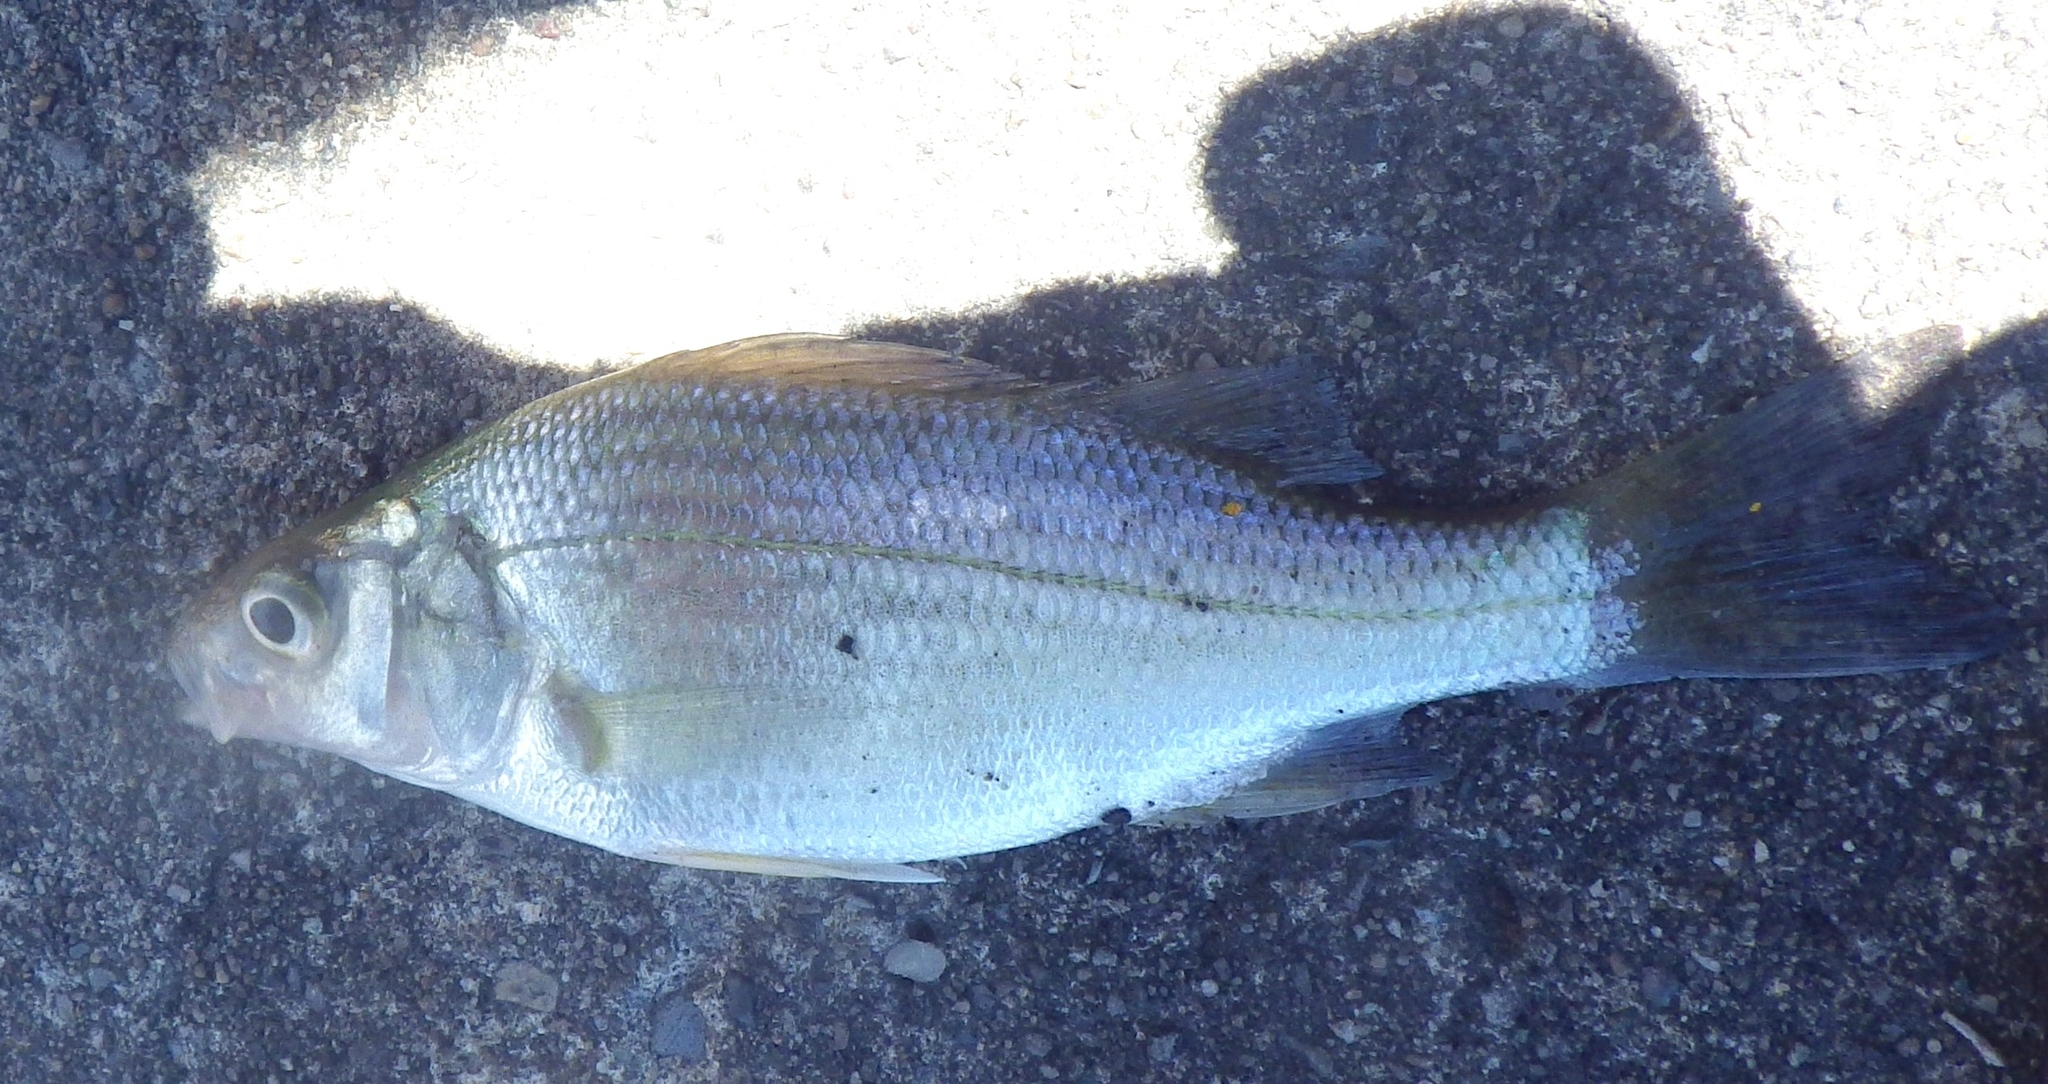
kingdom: Animalia
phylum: Chordata
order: Perciformes
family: Moronidae
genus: Morone
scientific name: Morone americana
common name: White perch
